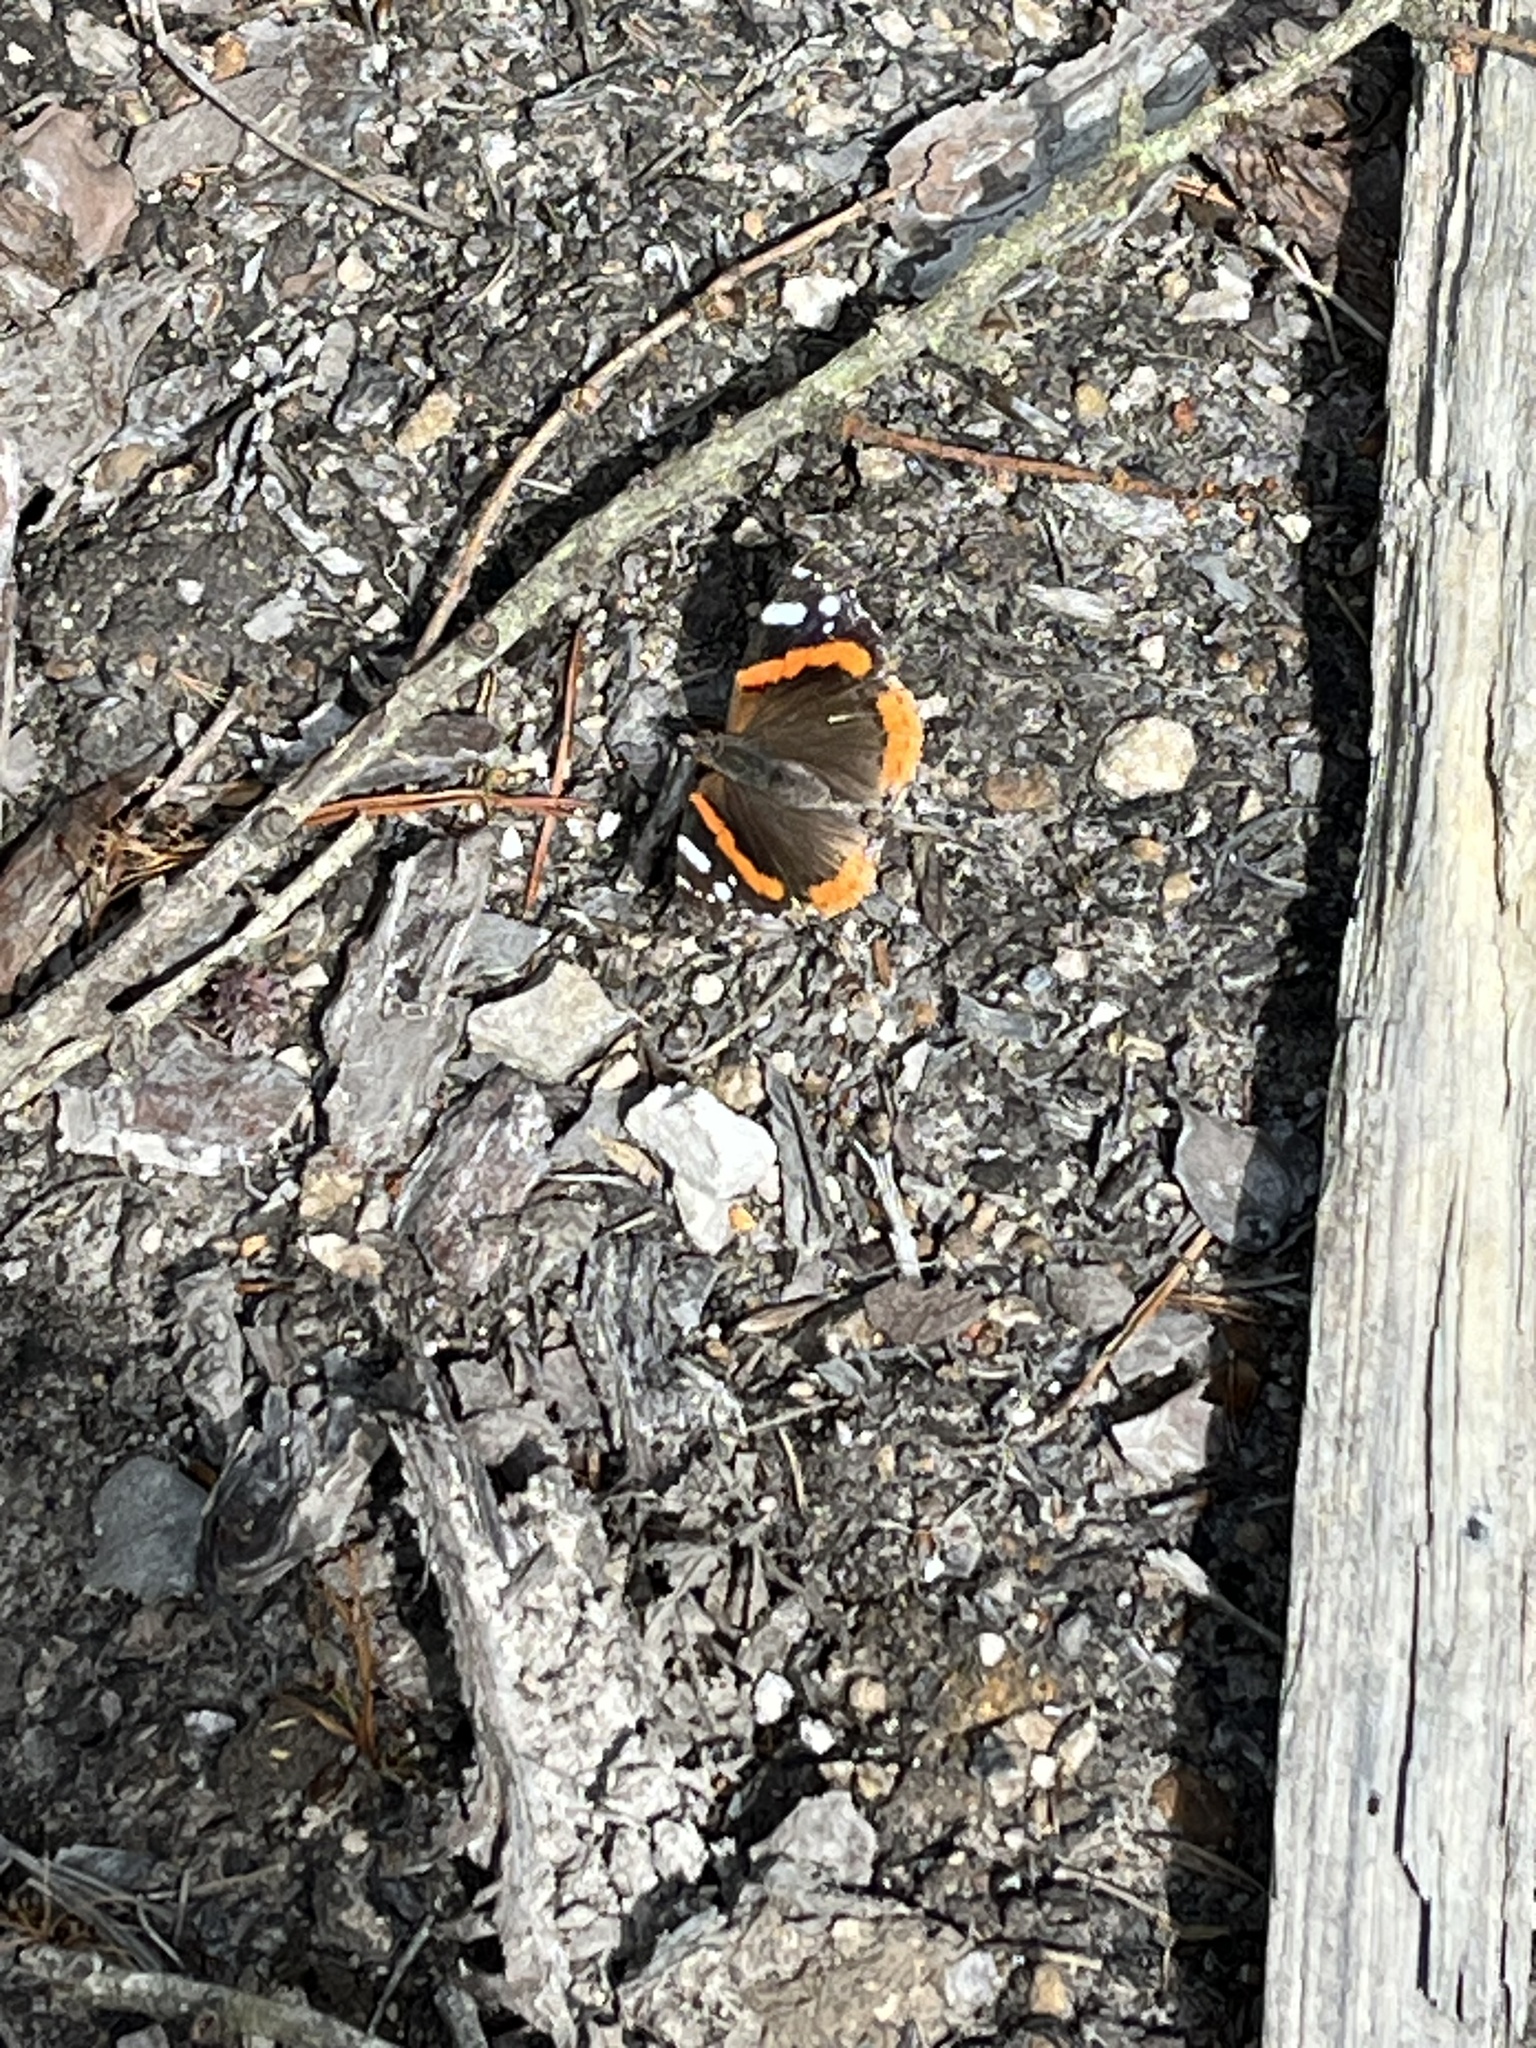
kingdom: Animalia
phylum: Arthropoda
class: Insecta
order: Lepidoptera
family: Nymphalidae
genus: Vanessa
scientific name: Vanessa atalanta
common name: Red admiral
